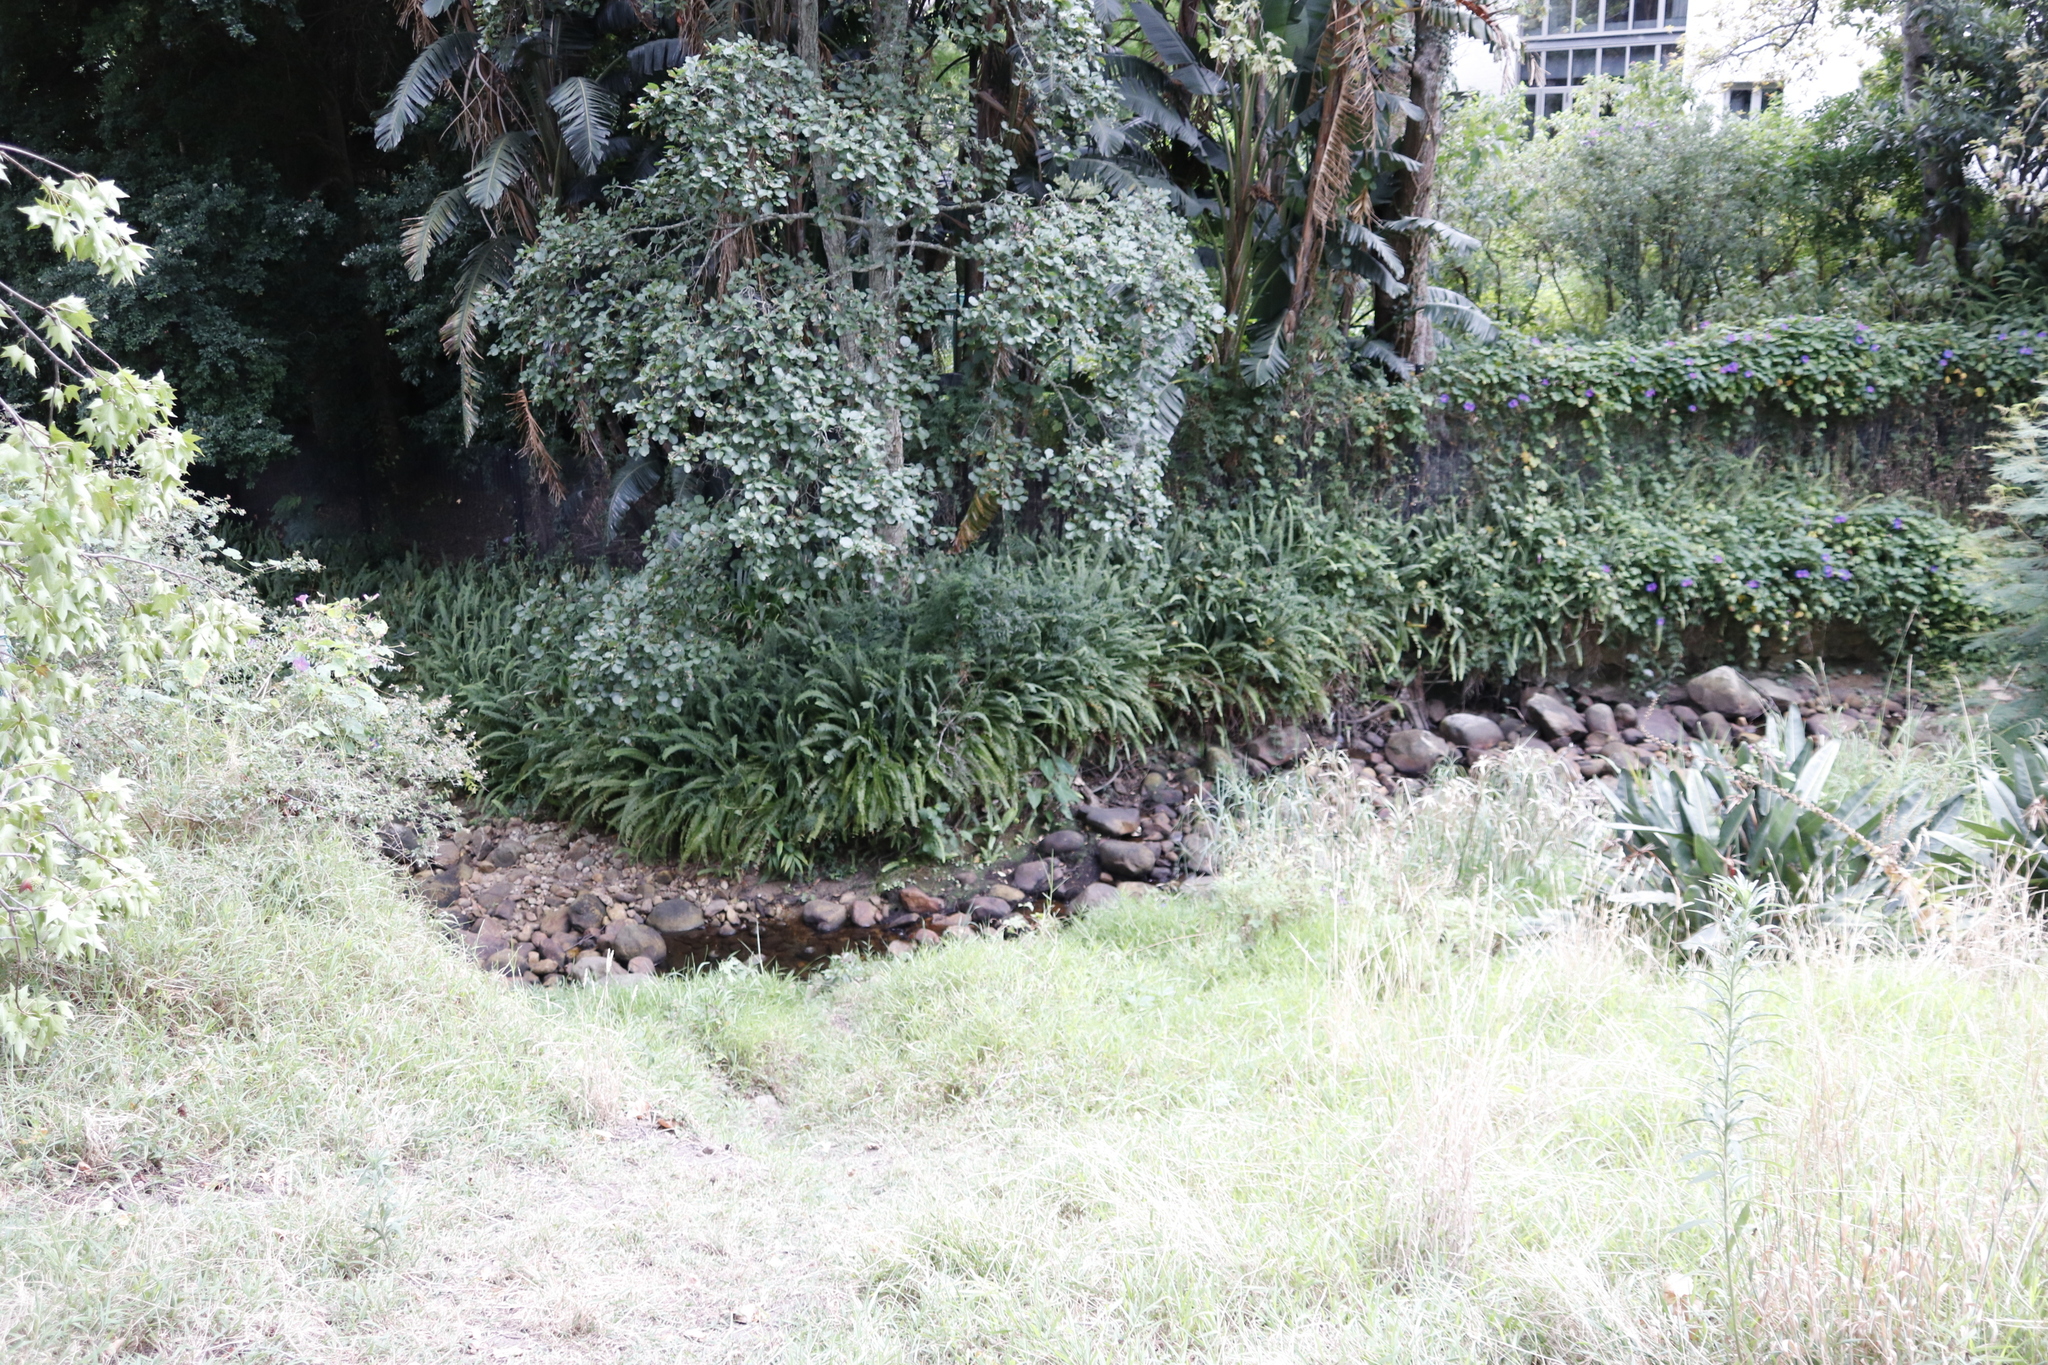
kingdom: Plantae
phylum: Tracheophyta
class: Polypodiopsida
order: Polypodiales
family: Nephrolepidaceae
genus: Nephrolepis
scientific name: Nephrolepis cordifolia
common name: Narrow swordfern
